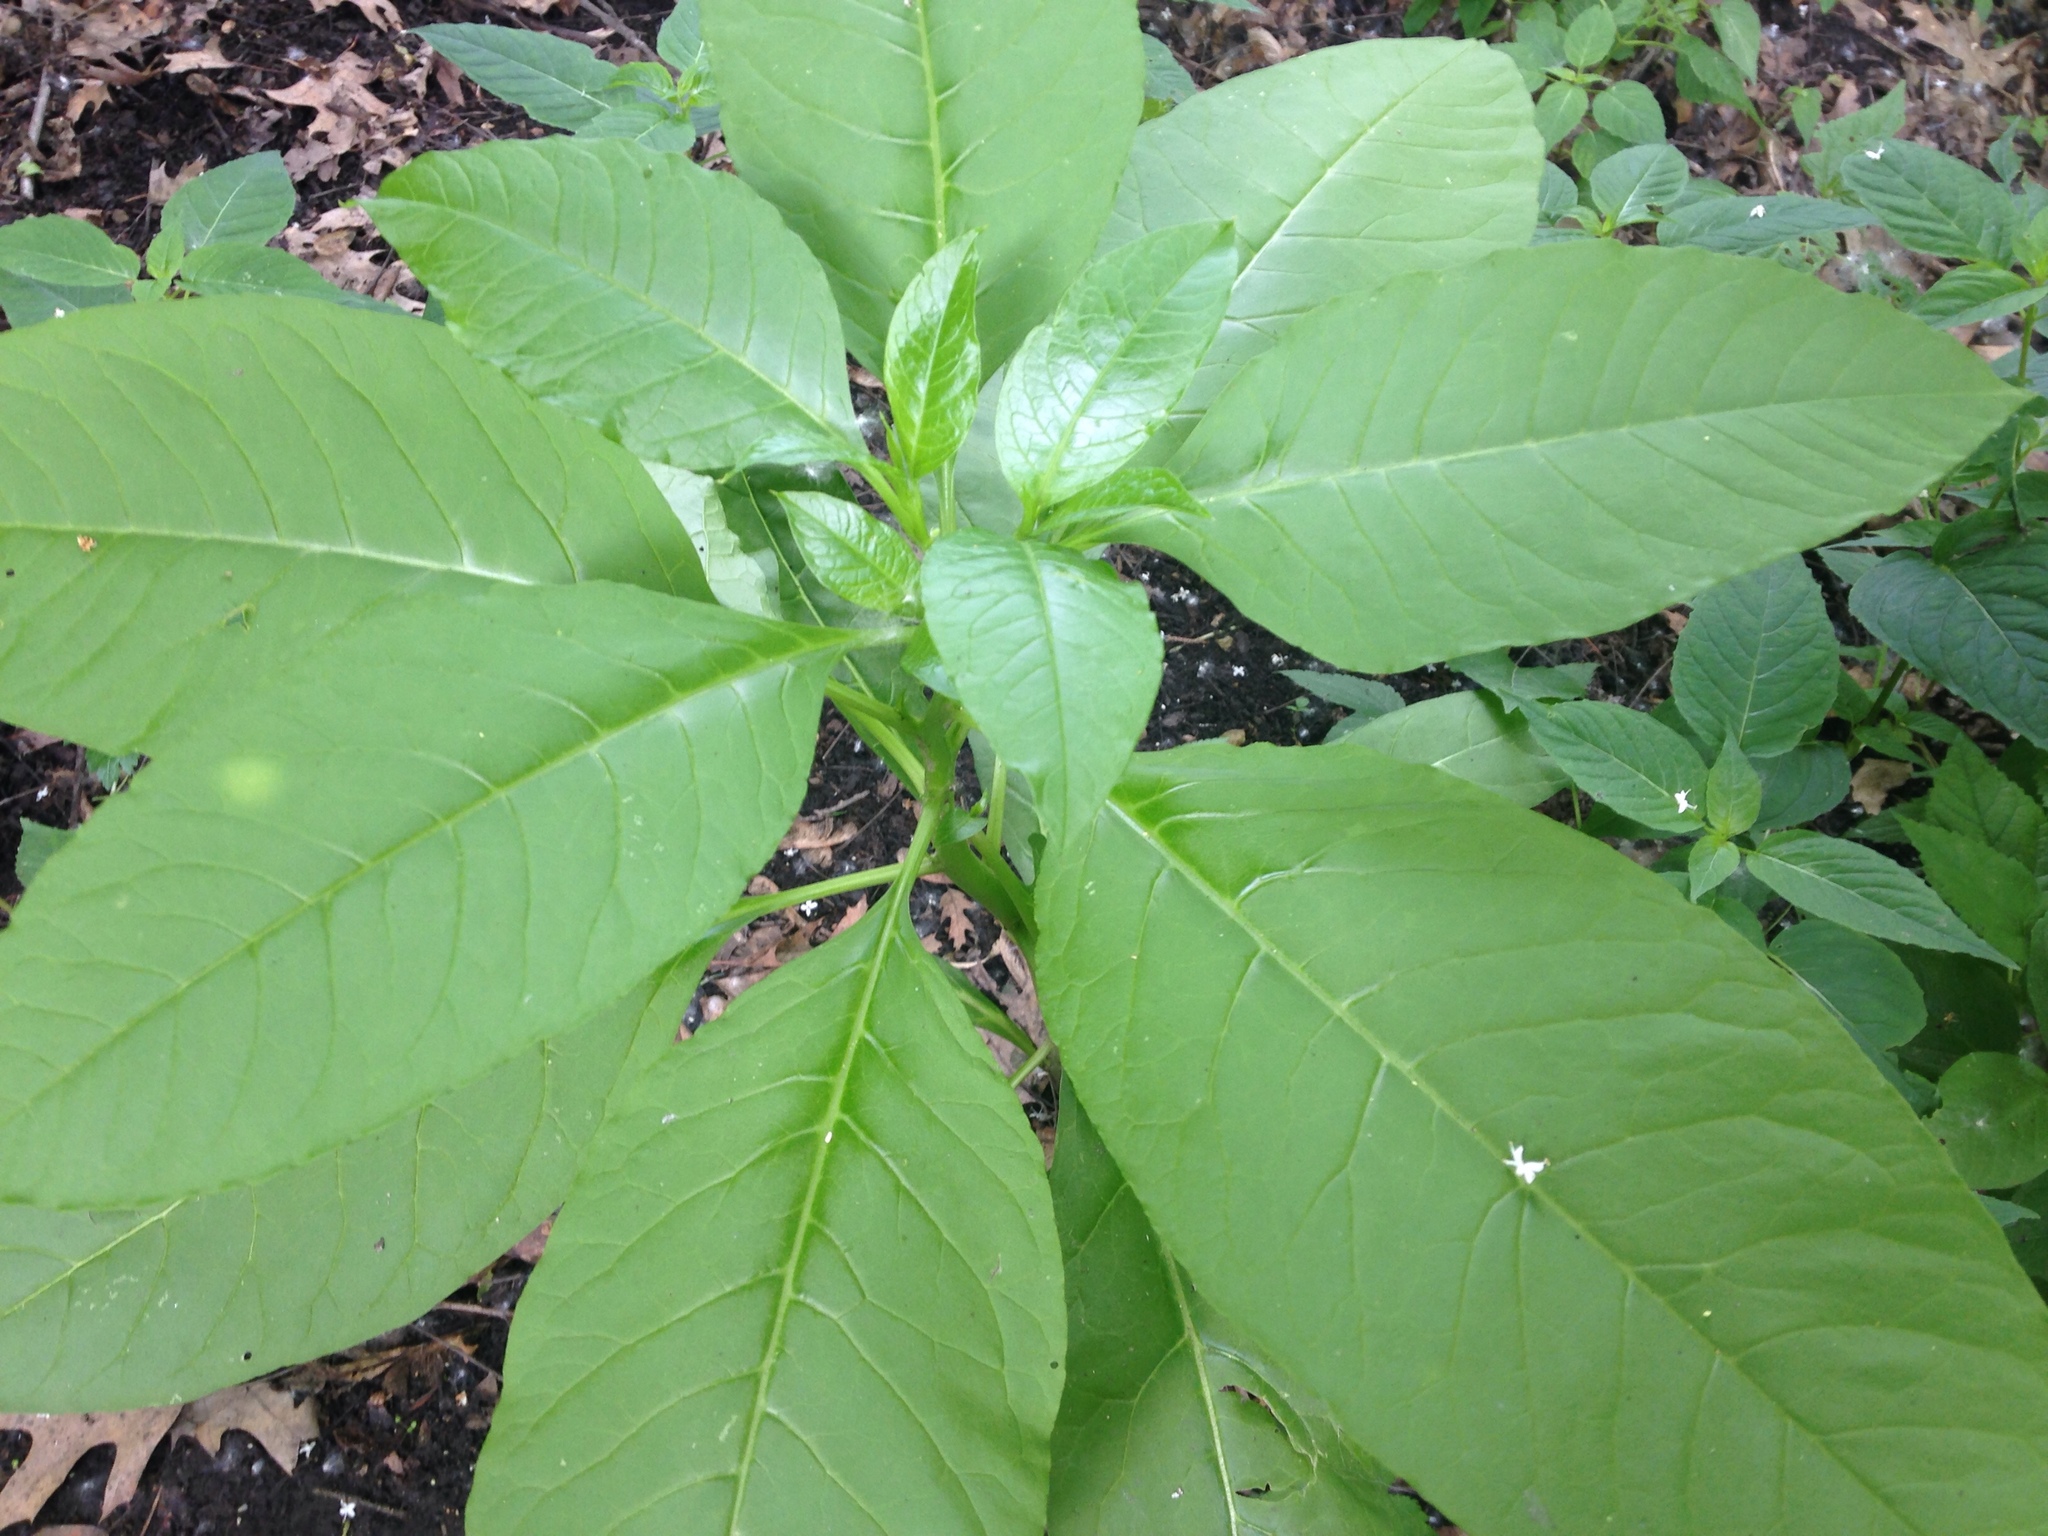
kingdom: Plantae
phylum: Tracheophyta
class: Magnoliopsida
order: Caryophyllales
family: Phytolaccaceae
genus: Phytolacca
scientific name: Phytolacca americana
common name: American pokeweed
